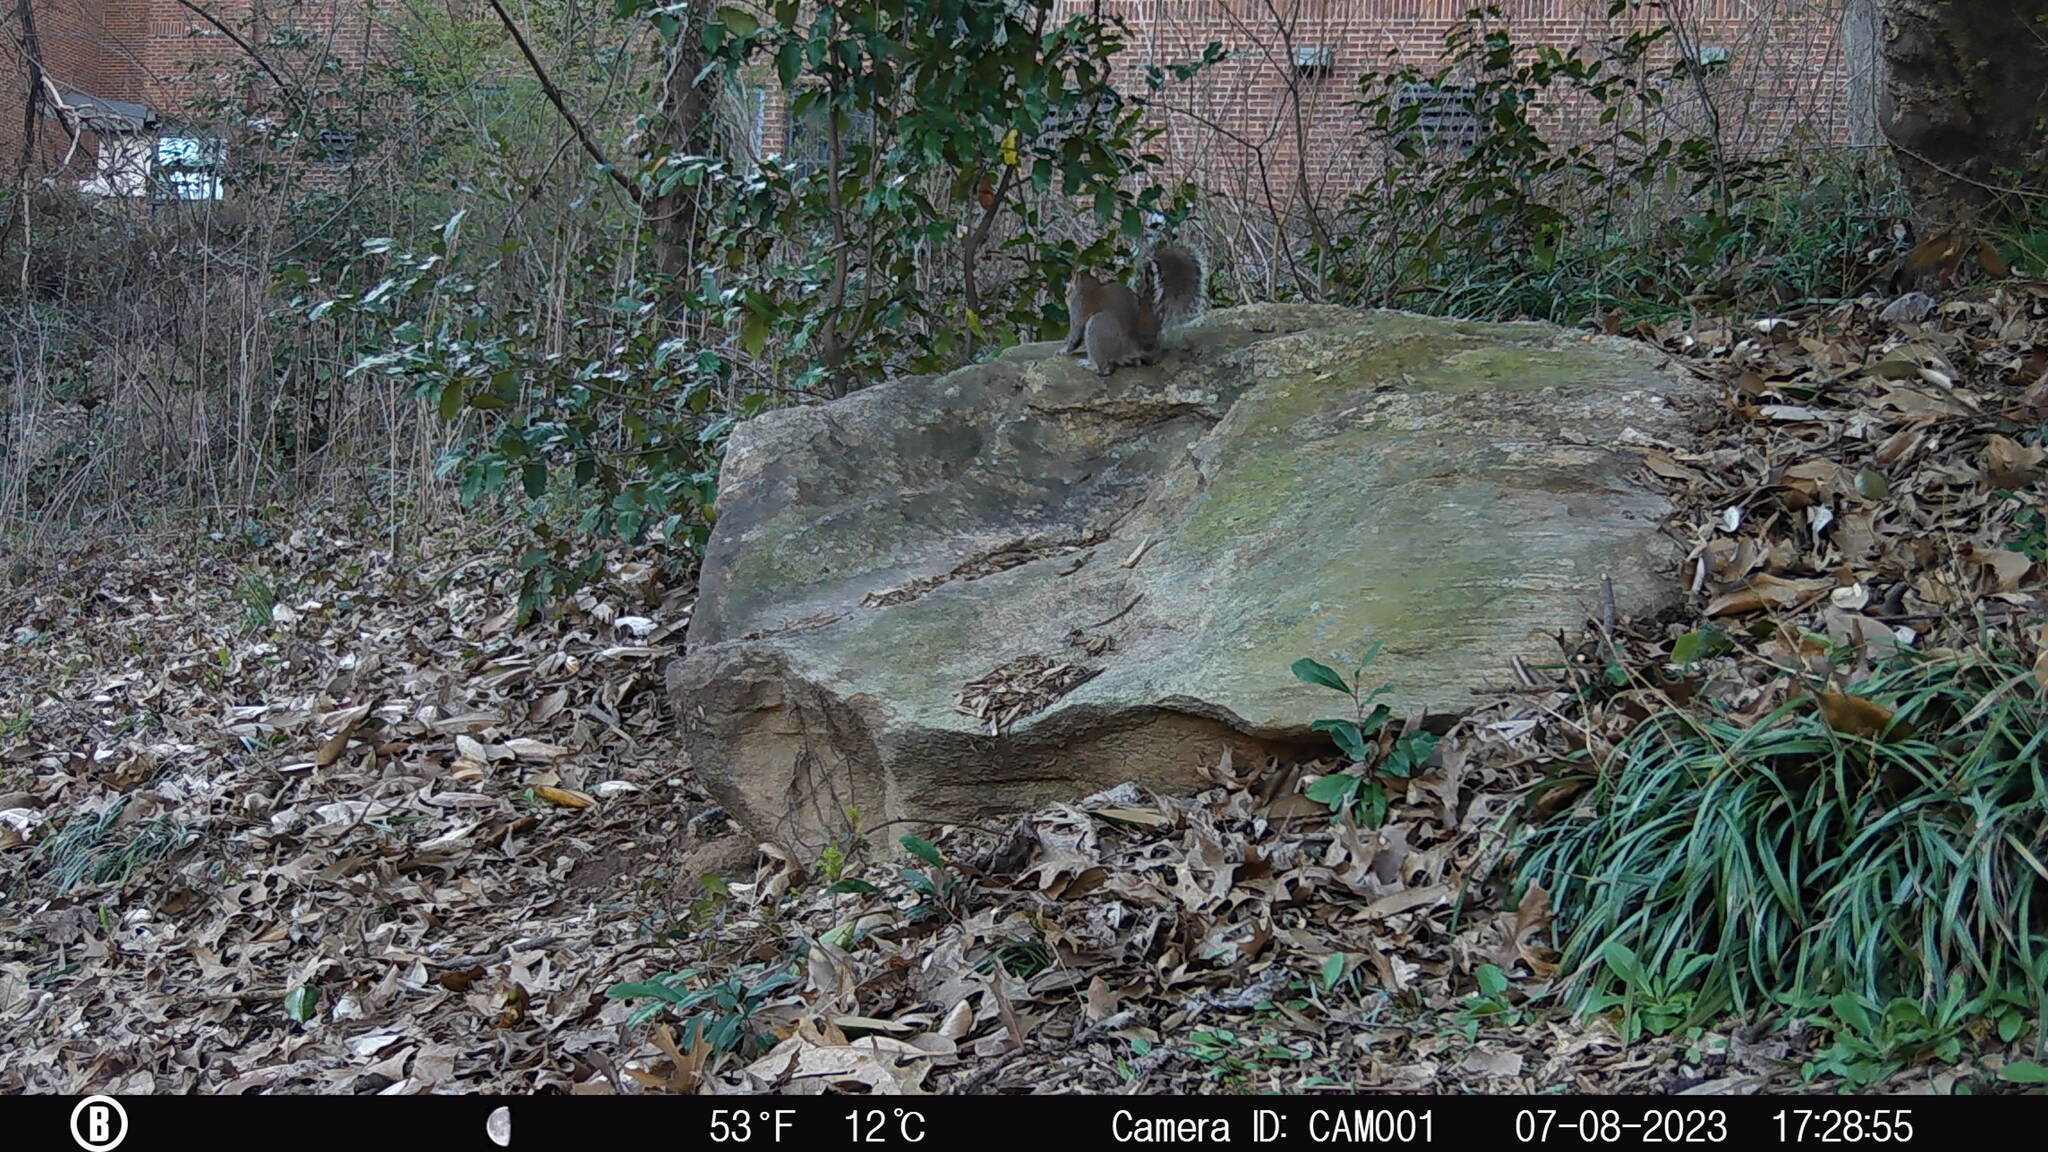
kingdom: Animalia
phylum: Chordata
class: Mammalia
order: Rodentia
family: Sciuridae
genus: Sciurus
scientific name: Sciurus carolinensis
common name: Eastern gray squirrel
